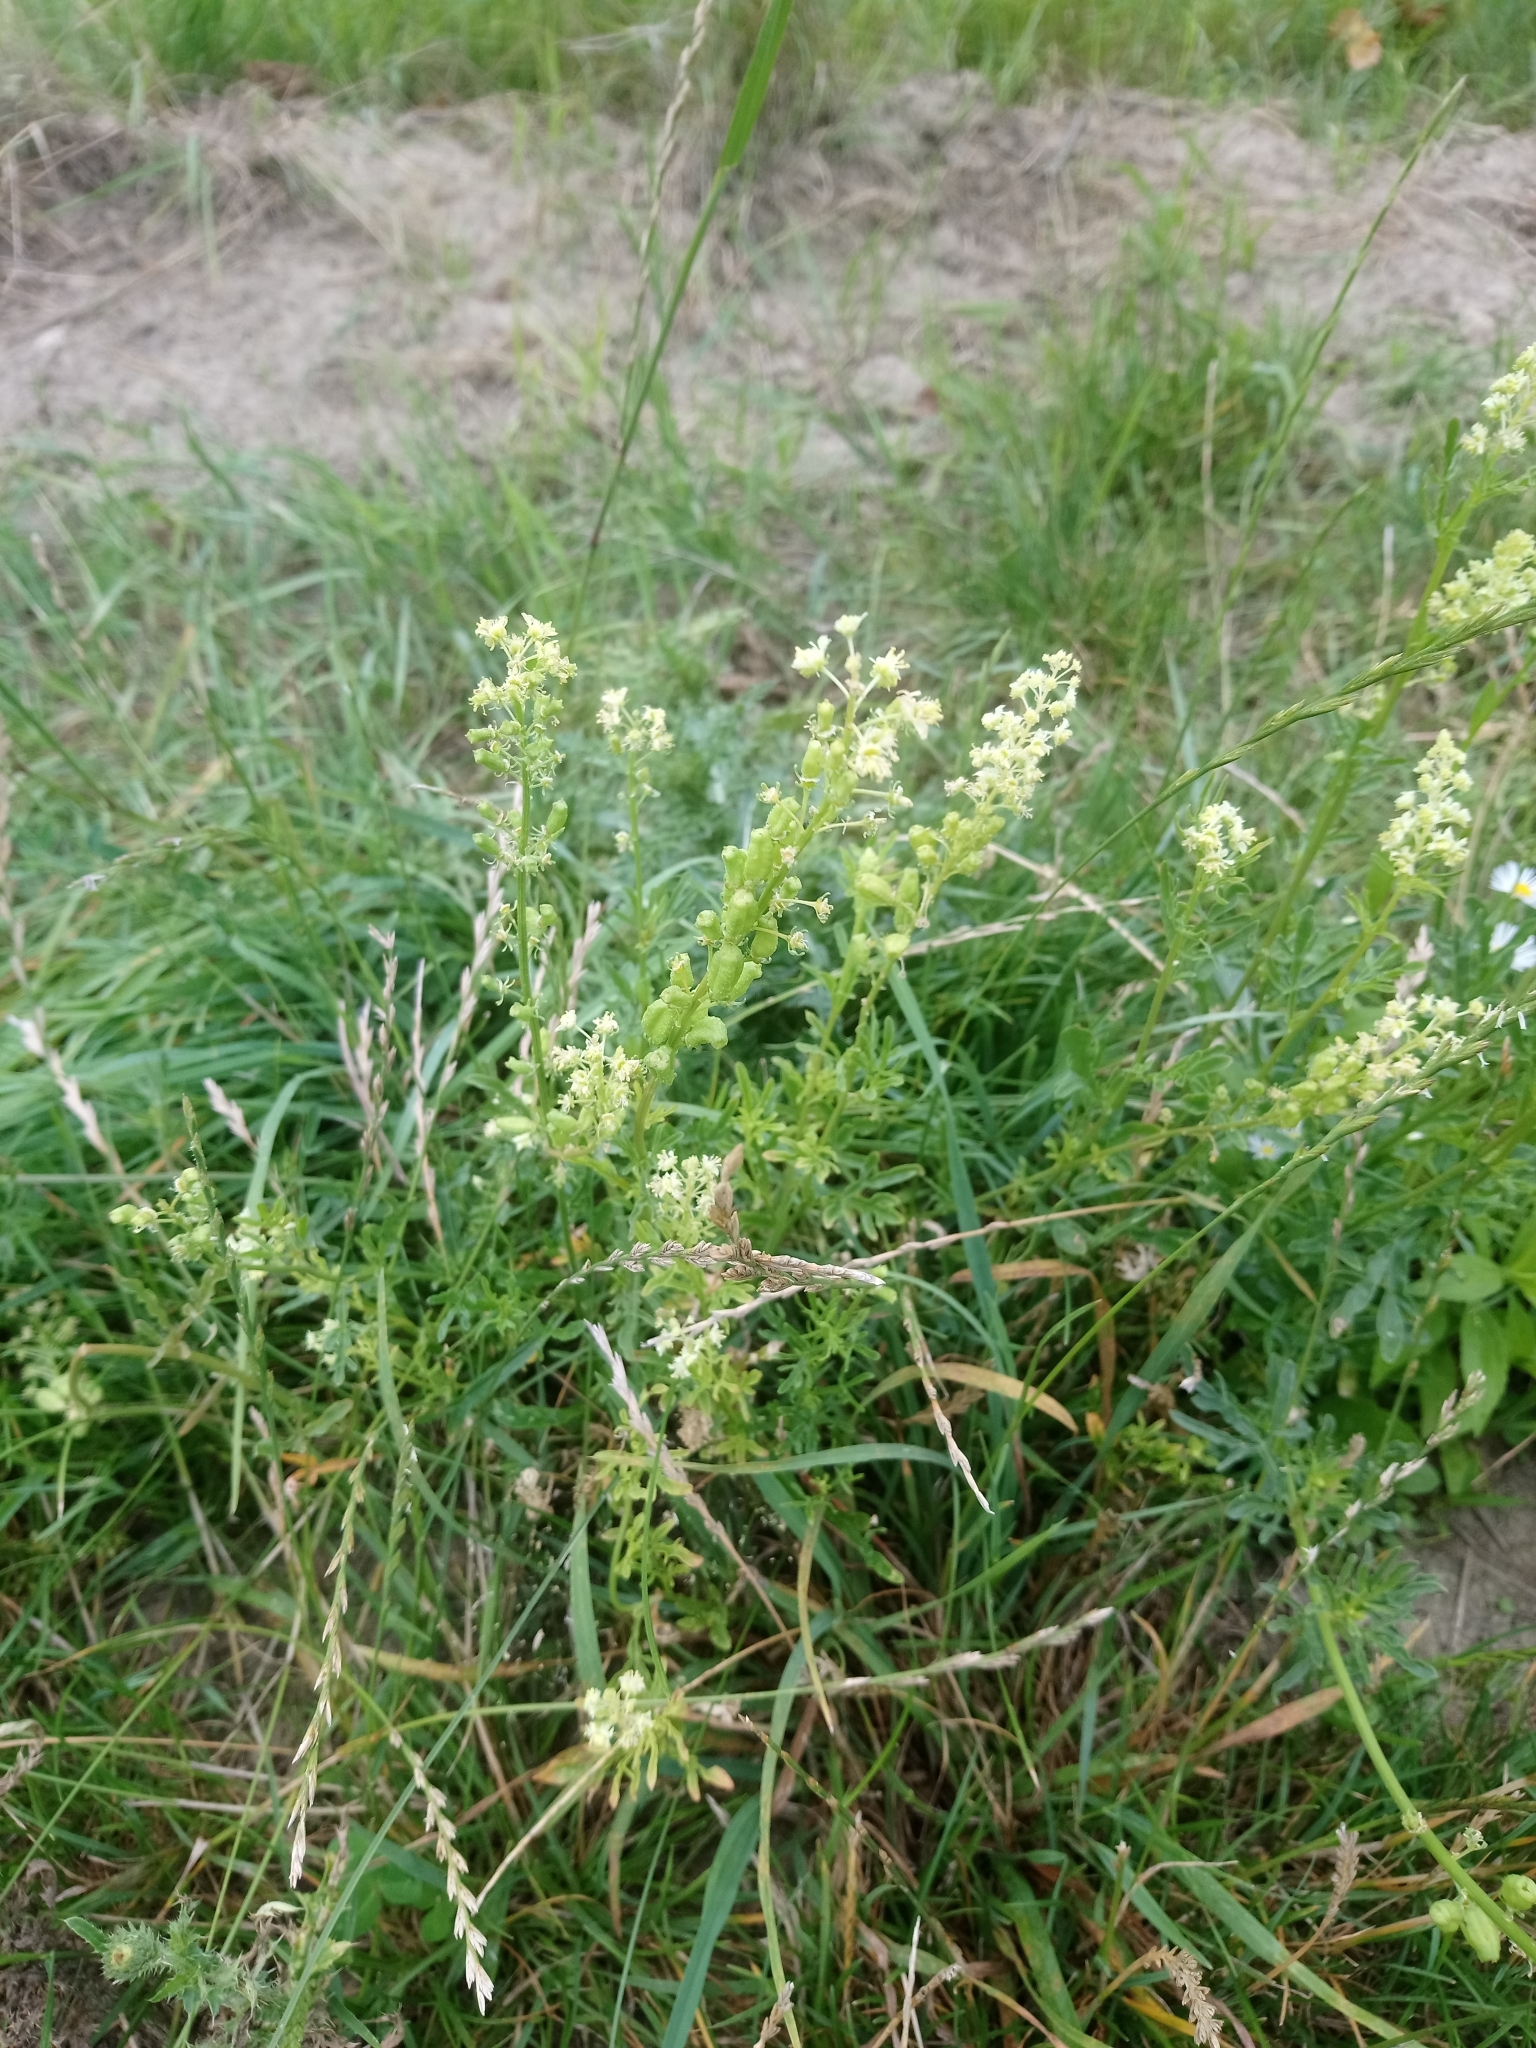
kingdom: Plantae
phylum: Tracheophyta
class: Magnoliopsida
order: Brassicales
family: Resedaceae
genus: Reseda
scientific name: Reseda lutea
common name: Wild mignonette
